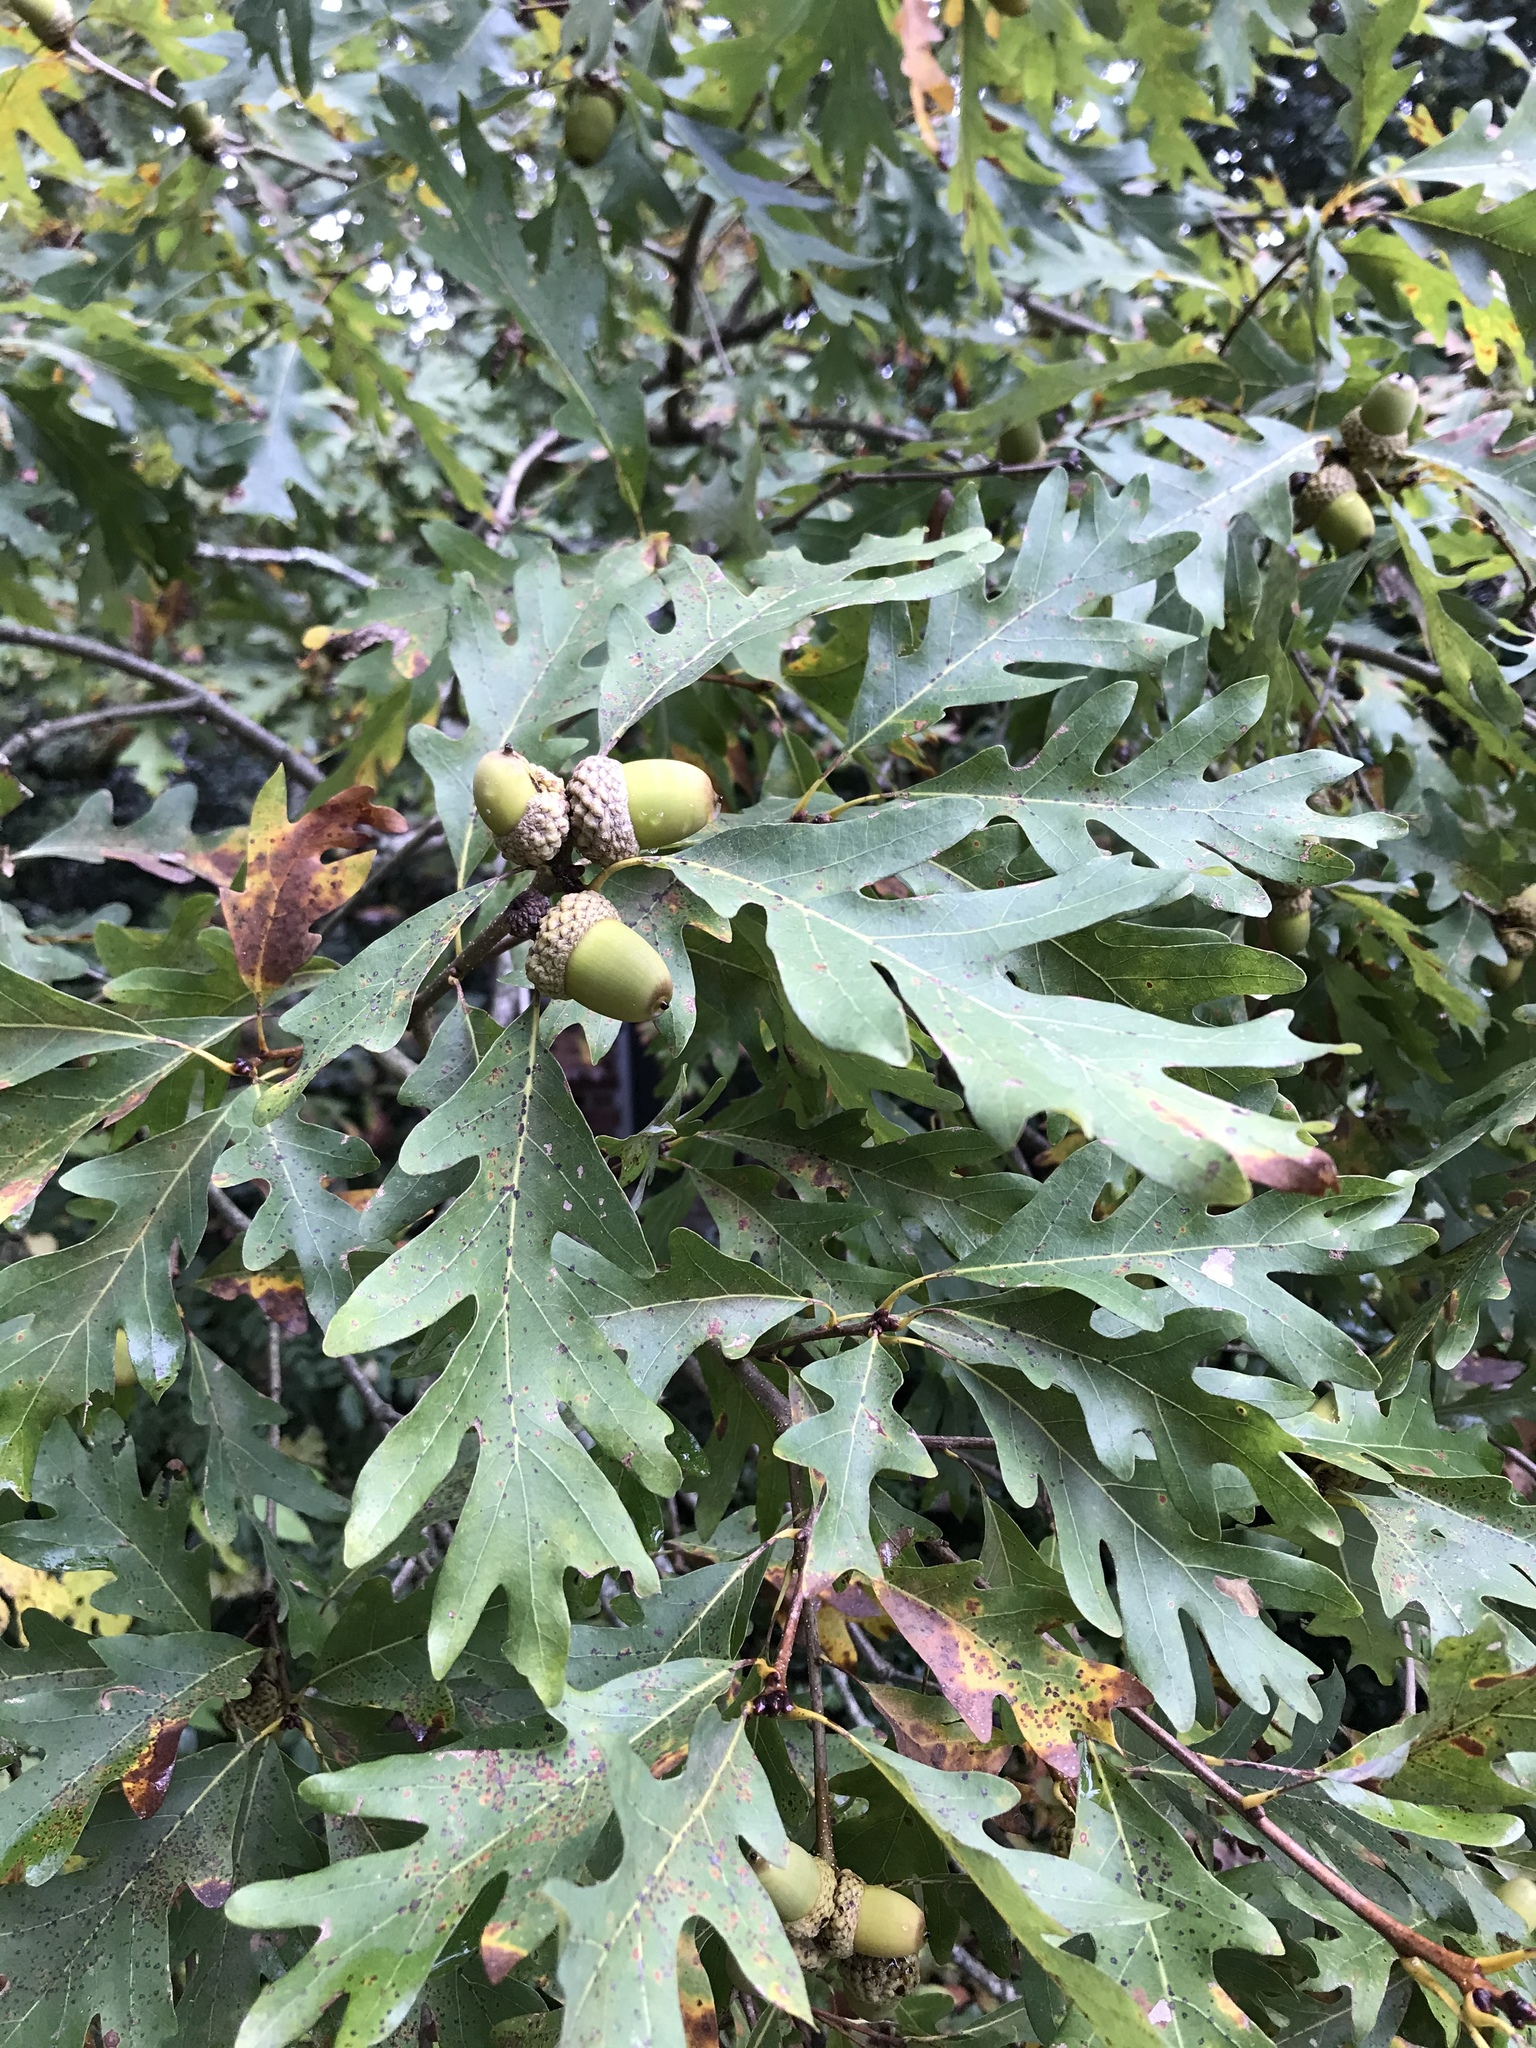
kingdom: Plantae
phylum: Tracheophyta
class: Magnoliopsida
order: Fagales
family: Fagaceae
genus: Quercus
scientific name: Quercus alba
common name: White oak
